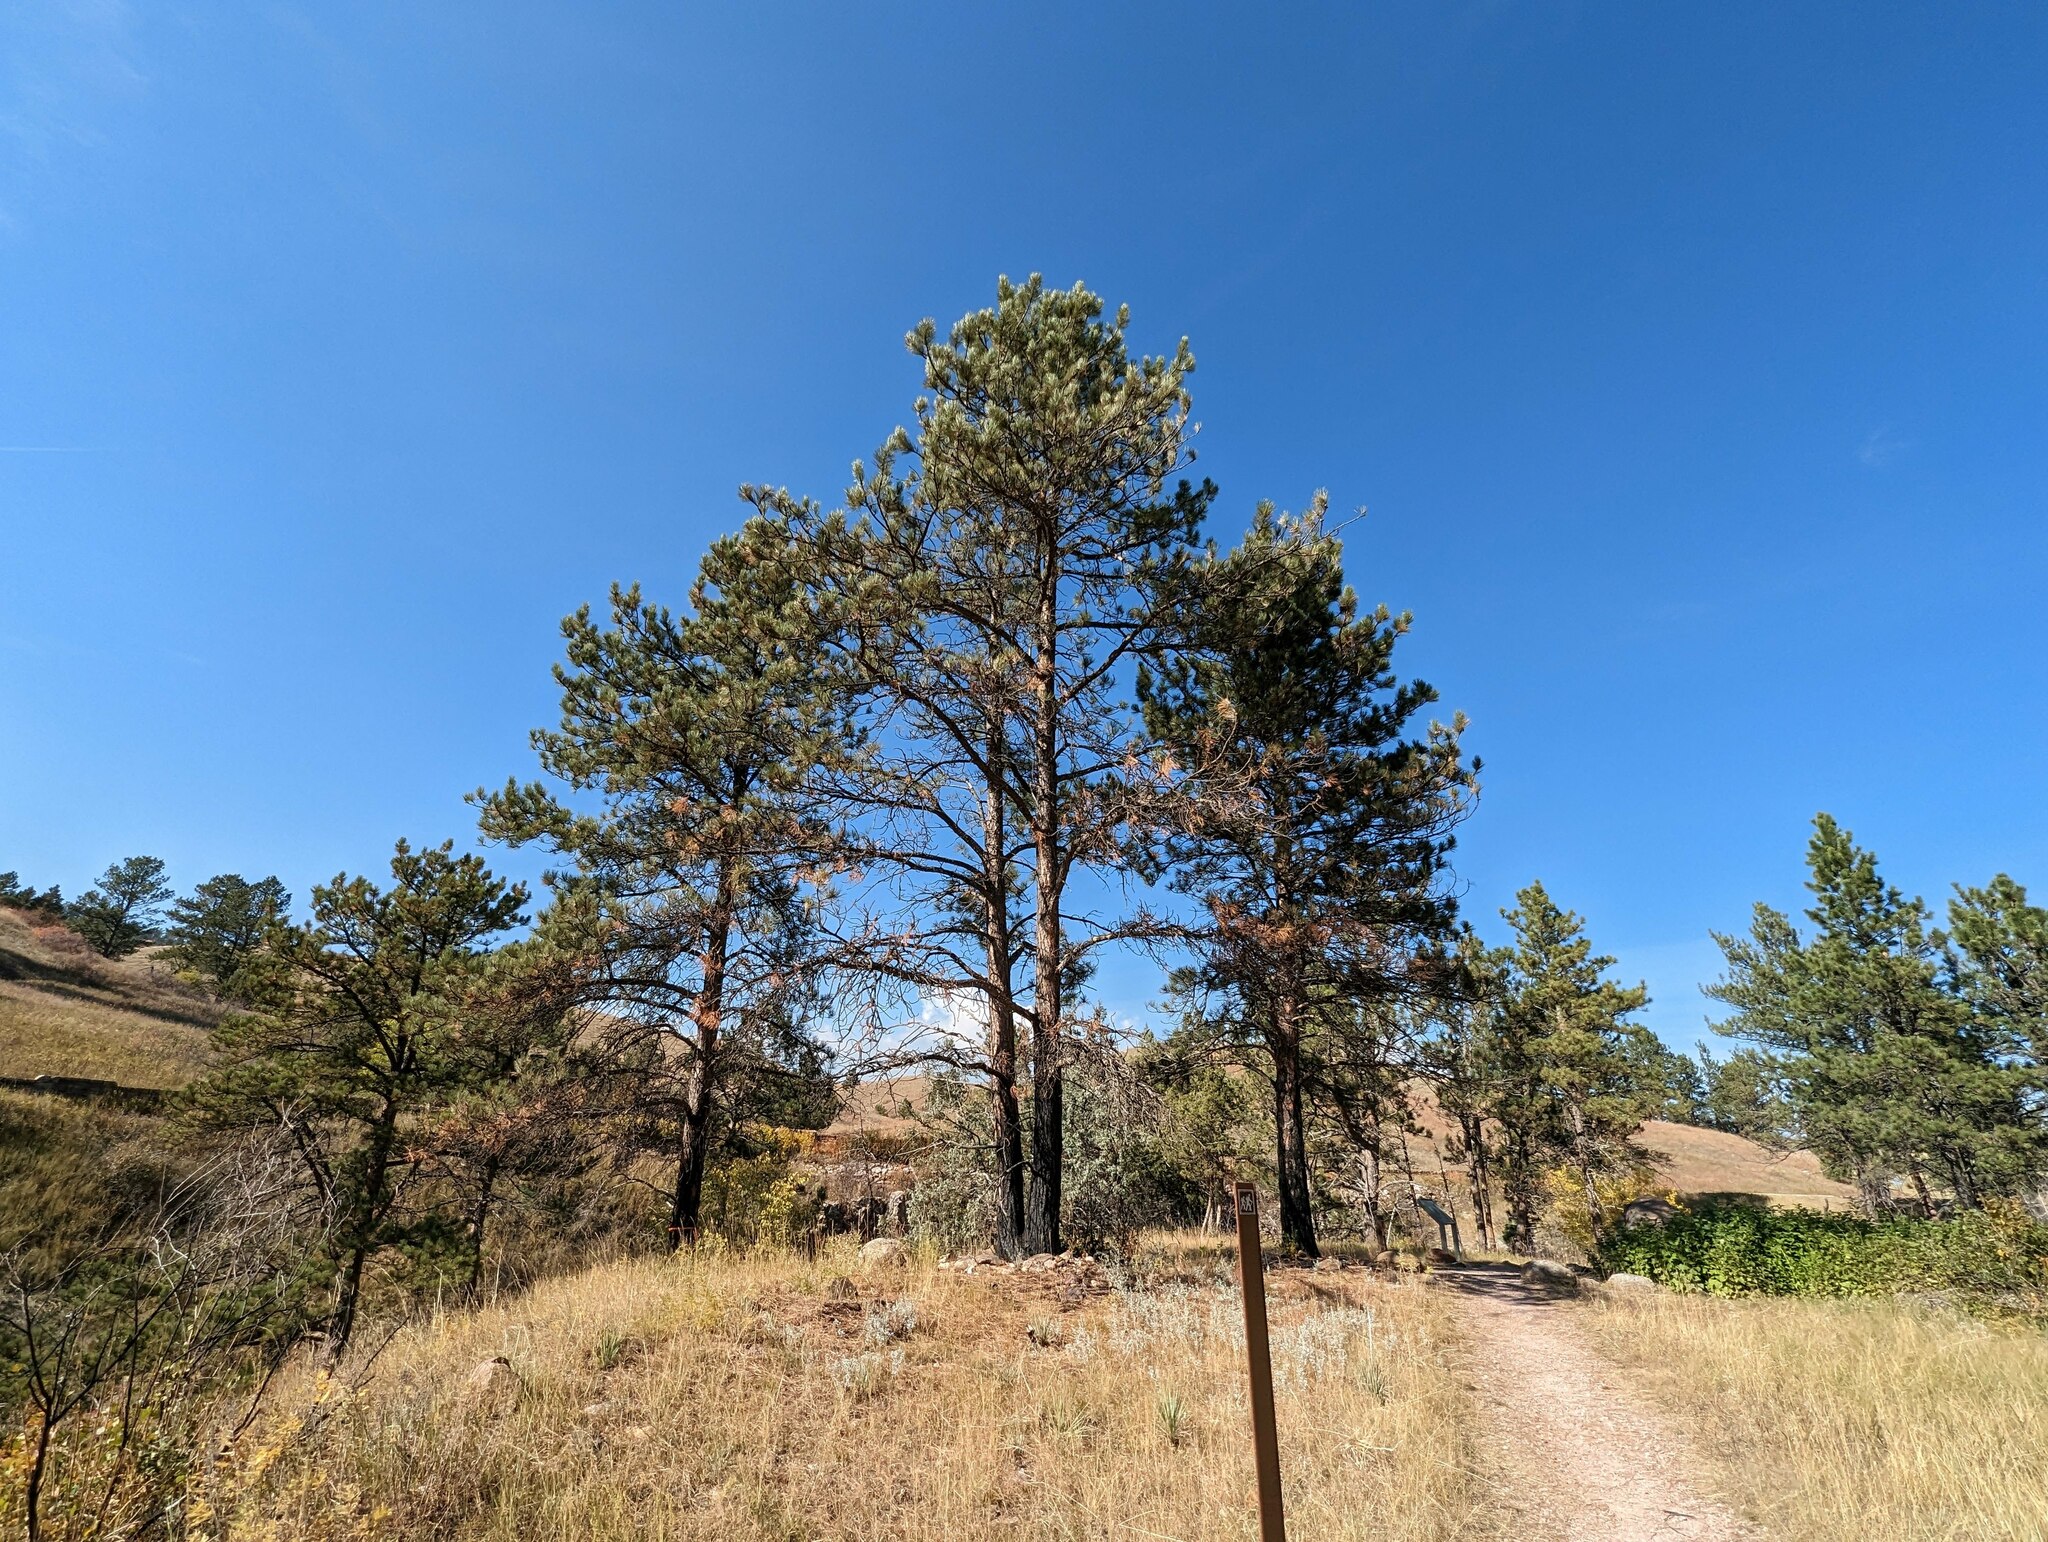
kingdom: Plantae
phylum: Tracheophyta
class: Pinopsida
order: Pinales
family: Pinaceae
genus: Pinus
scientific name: Pinus ponderosa
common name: Western yellow-pine
